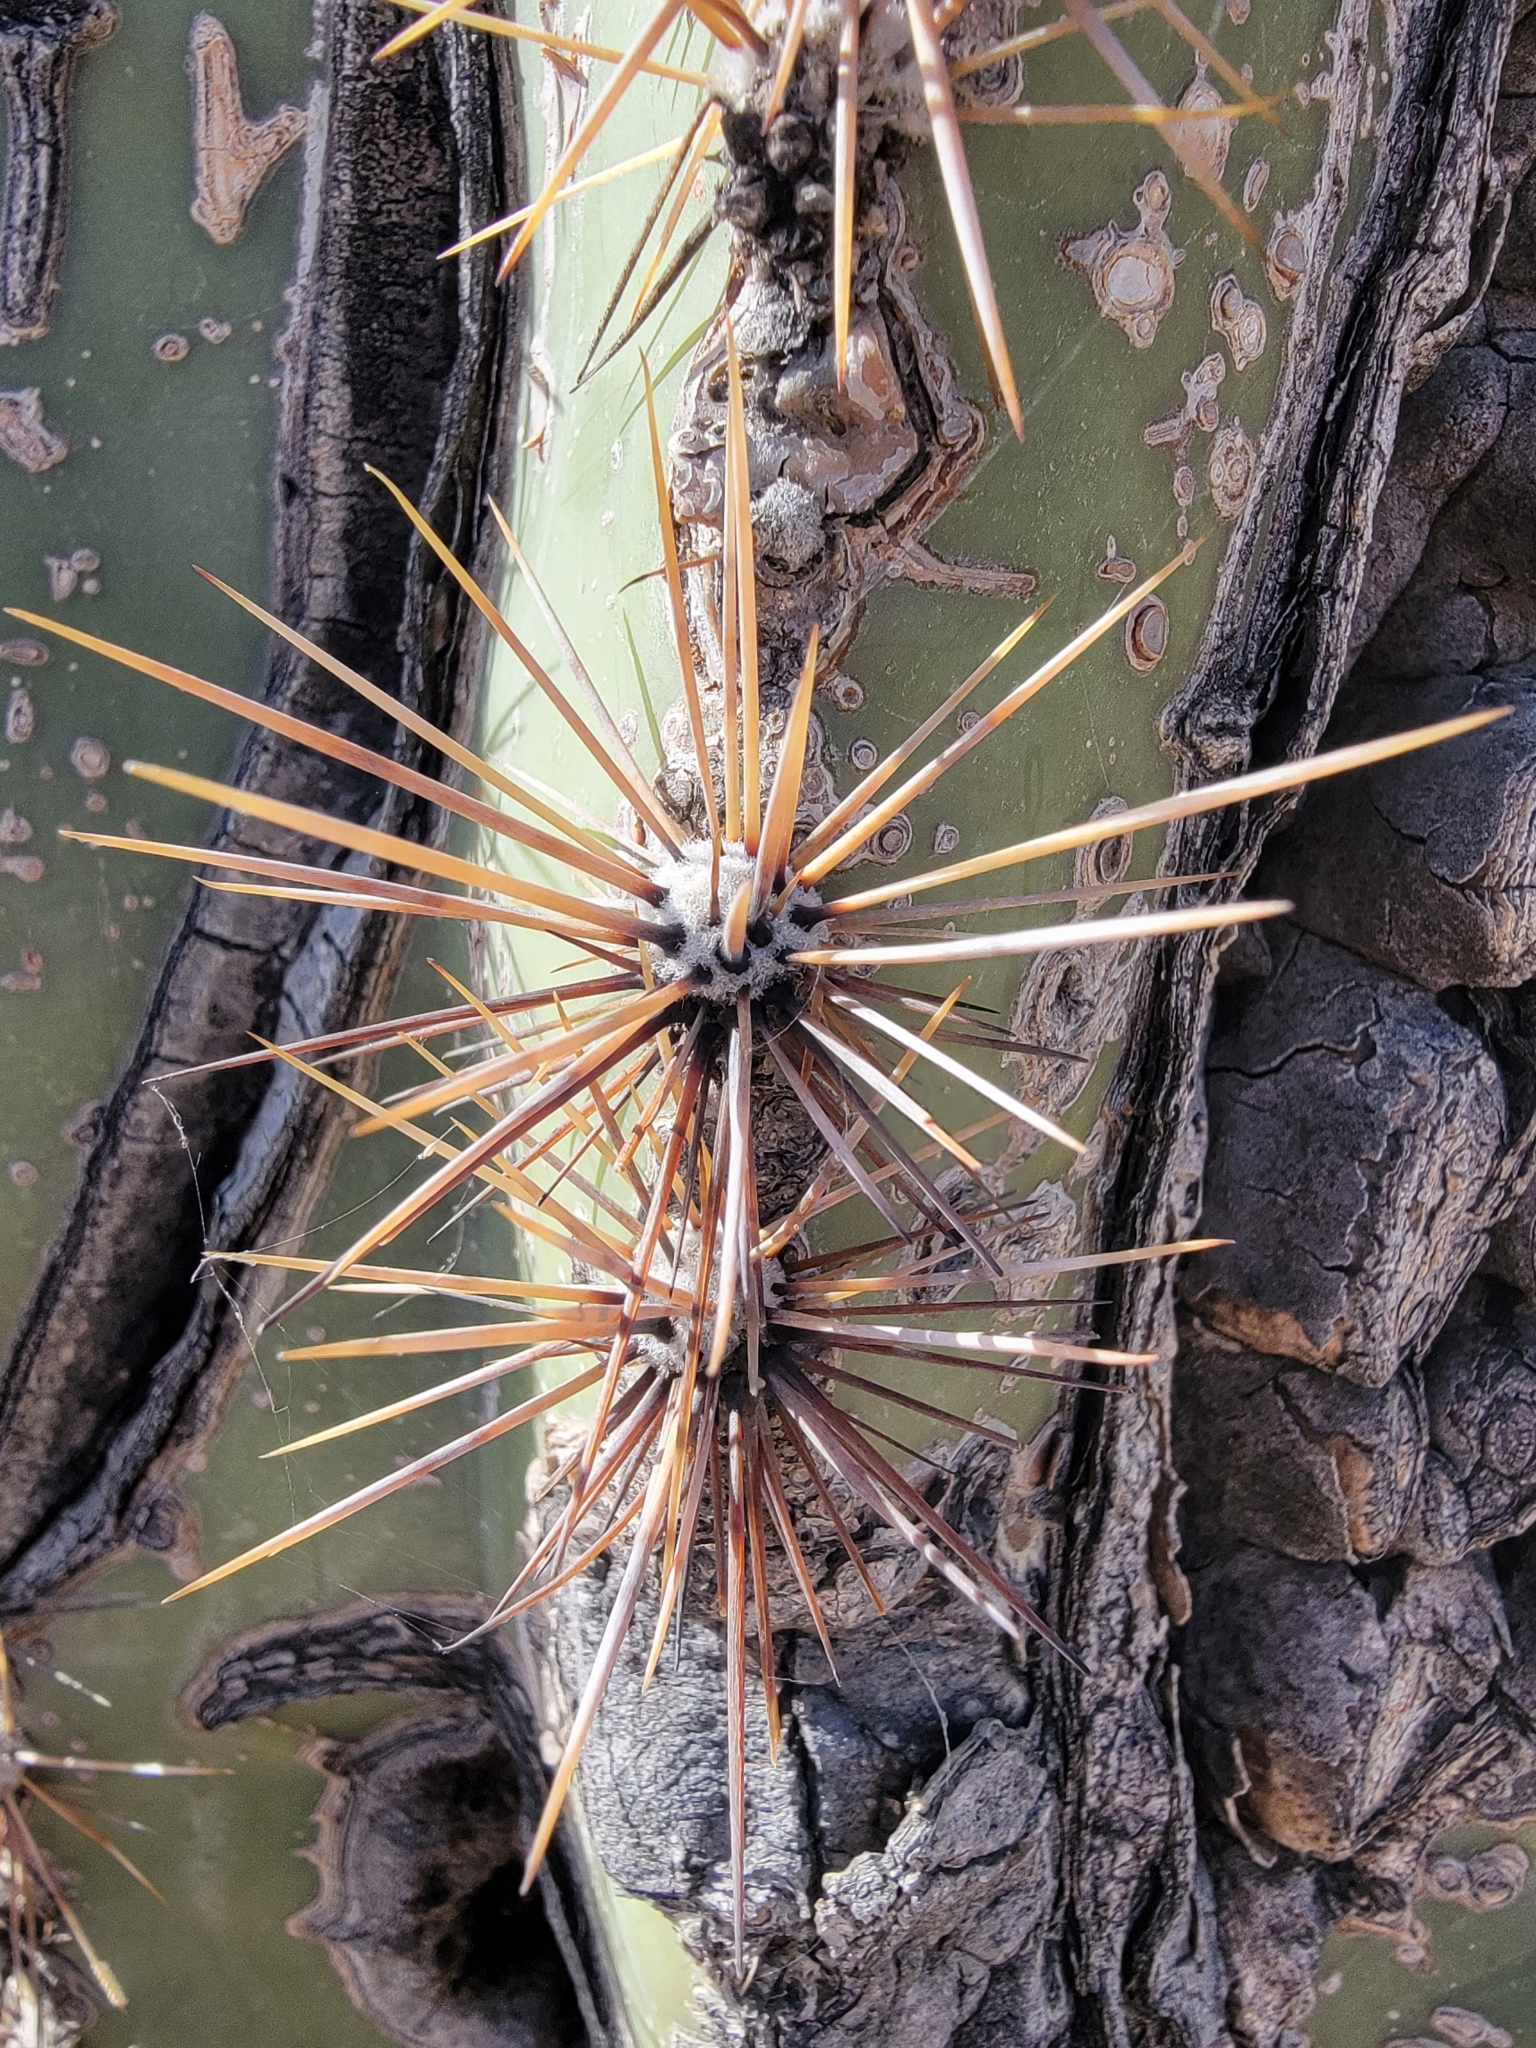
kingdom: Plantae
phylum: Tracheophyta
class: Magnoliopsida
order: Caryophyllales
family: Cactaceae
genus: Carnegiea
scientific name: Carnegiea gigantea
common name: Saguaro
